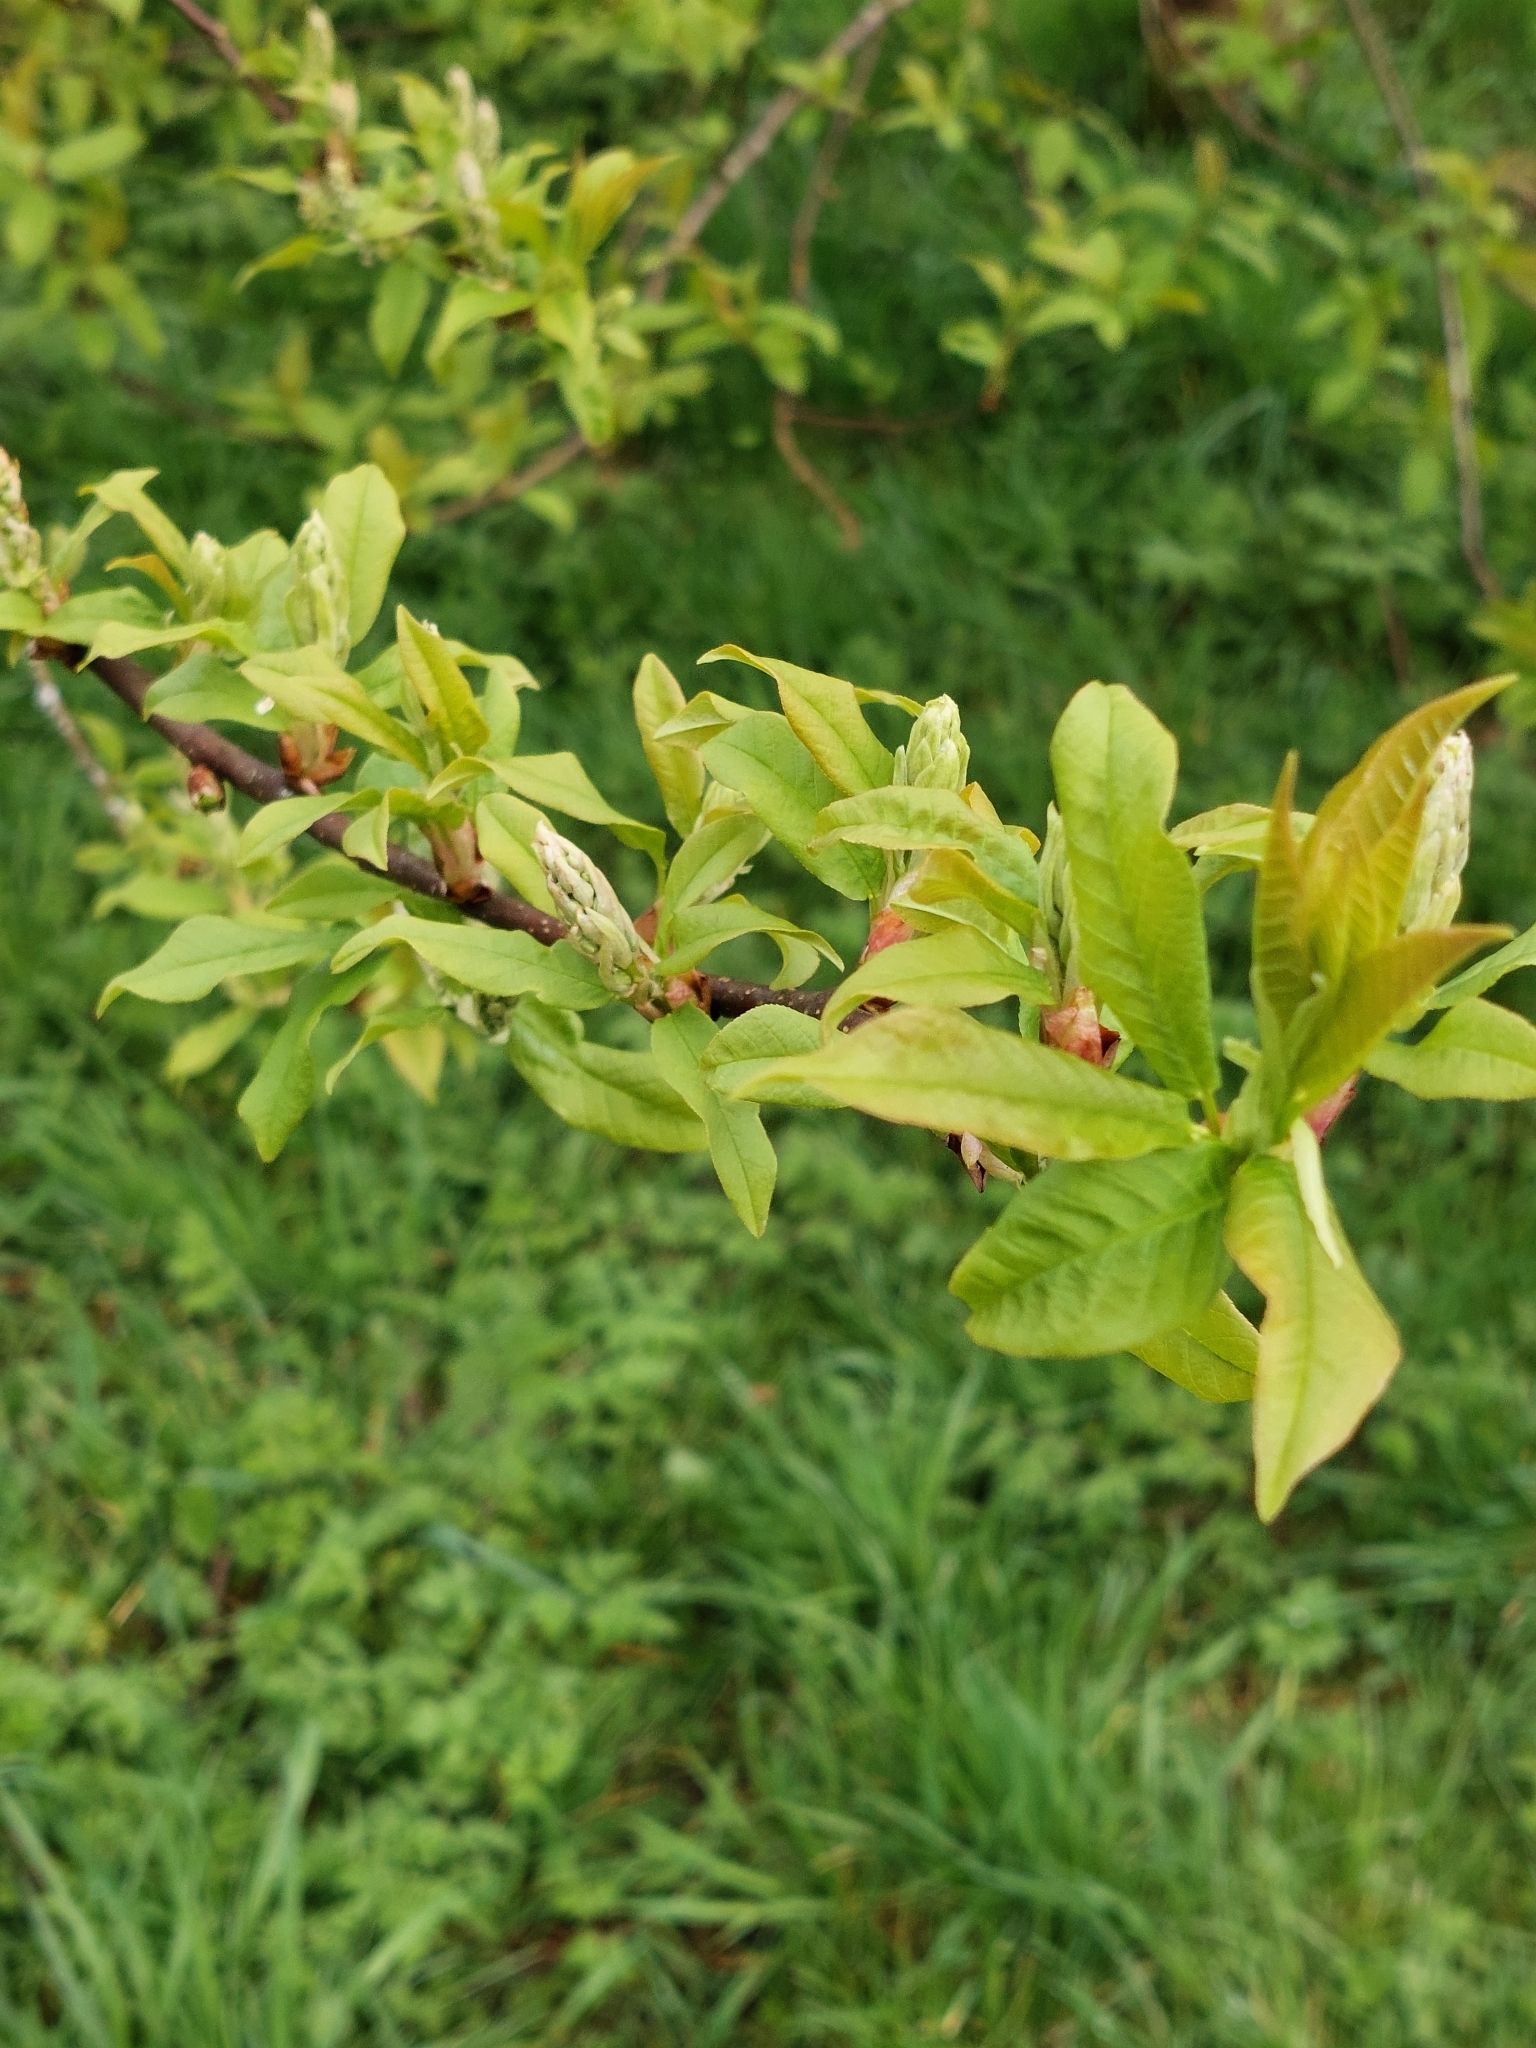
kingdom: Plantae
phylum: Tracheophyta
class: Magnoliopsida
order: Rosales
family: Rosaceae
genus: Prunus
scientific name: Prunus padus
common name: Bird cherry
